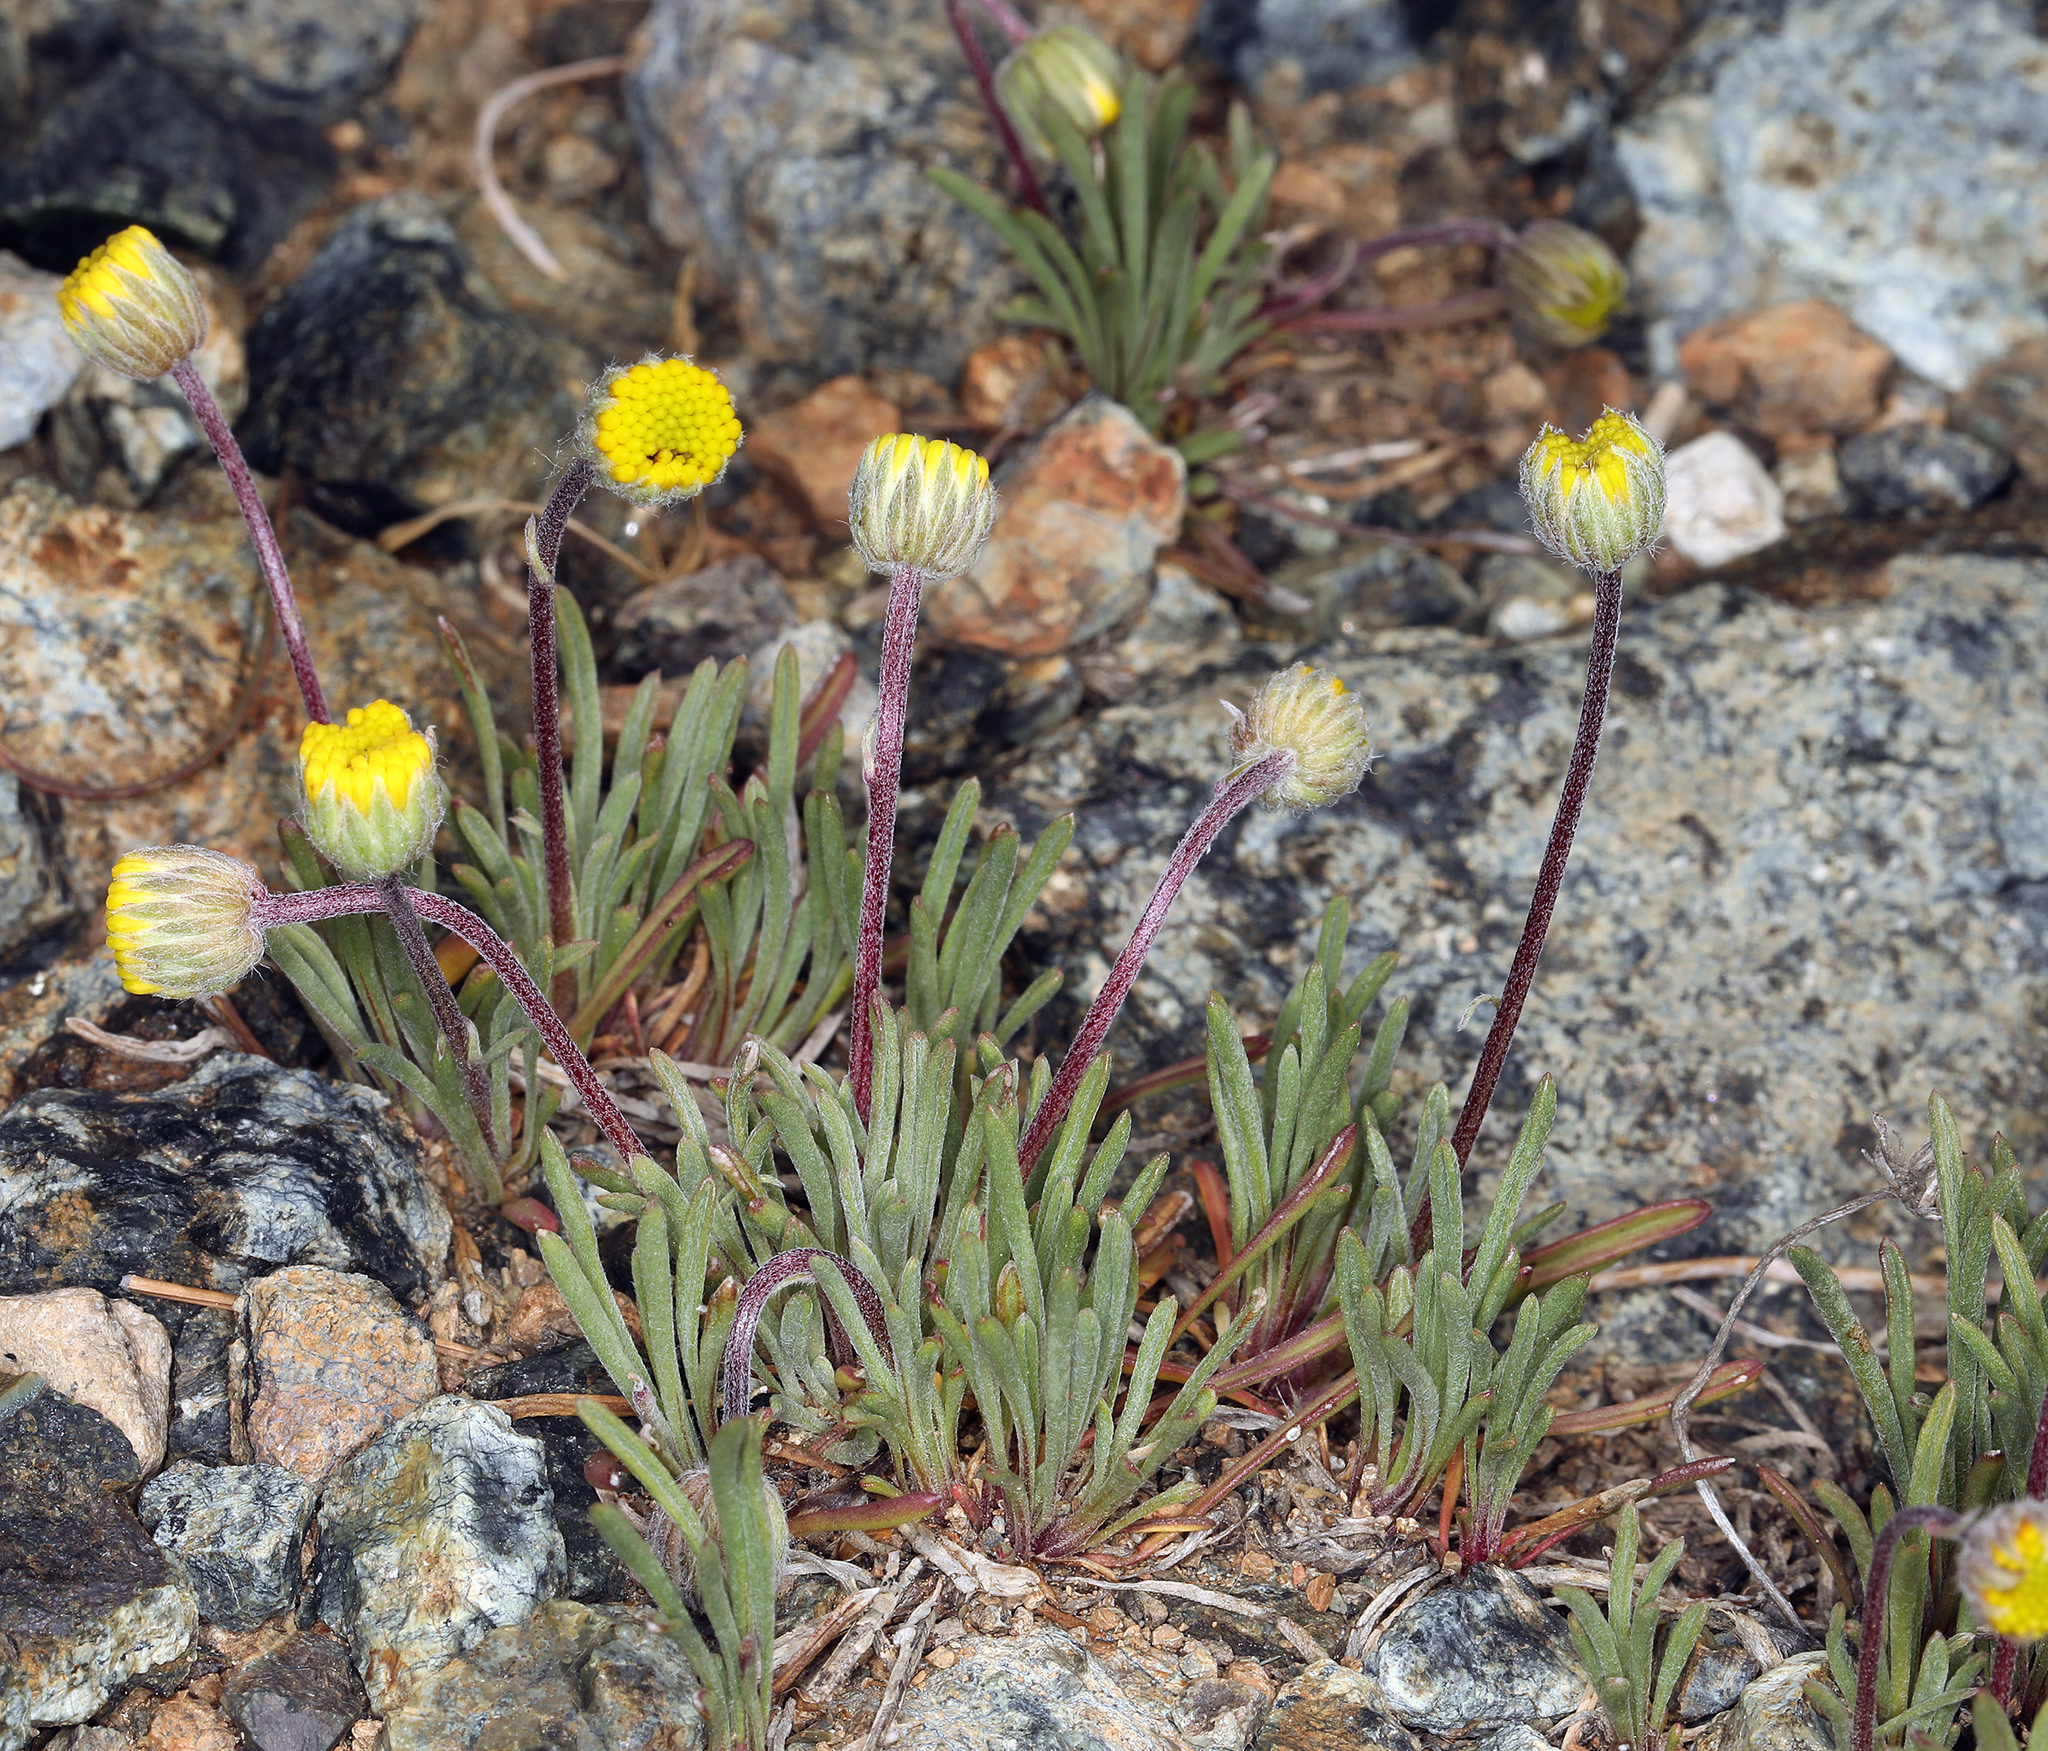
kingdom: Plantae
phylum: Tracheophyta
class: Magnoliopsida
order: Asterales
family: Asteraceae
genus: Erigeron
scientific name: Erigeron bloomeri
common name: Bloomer's fleabane
